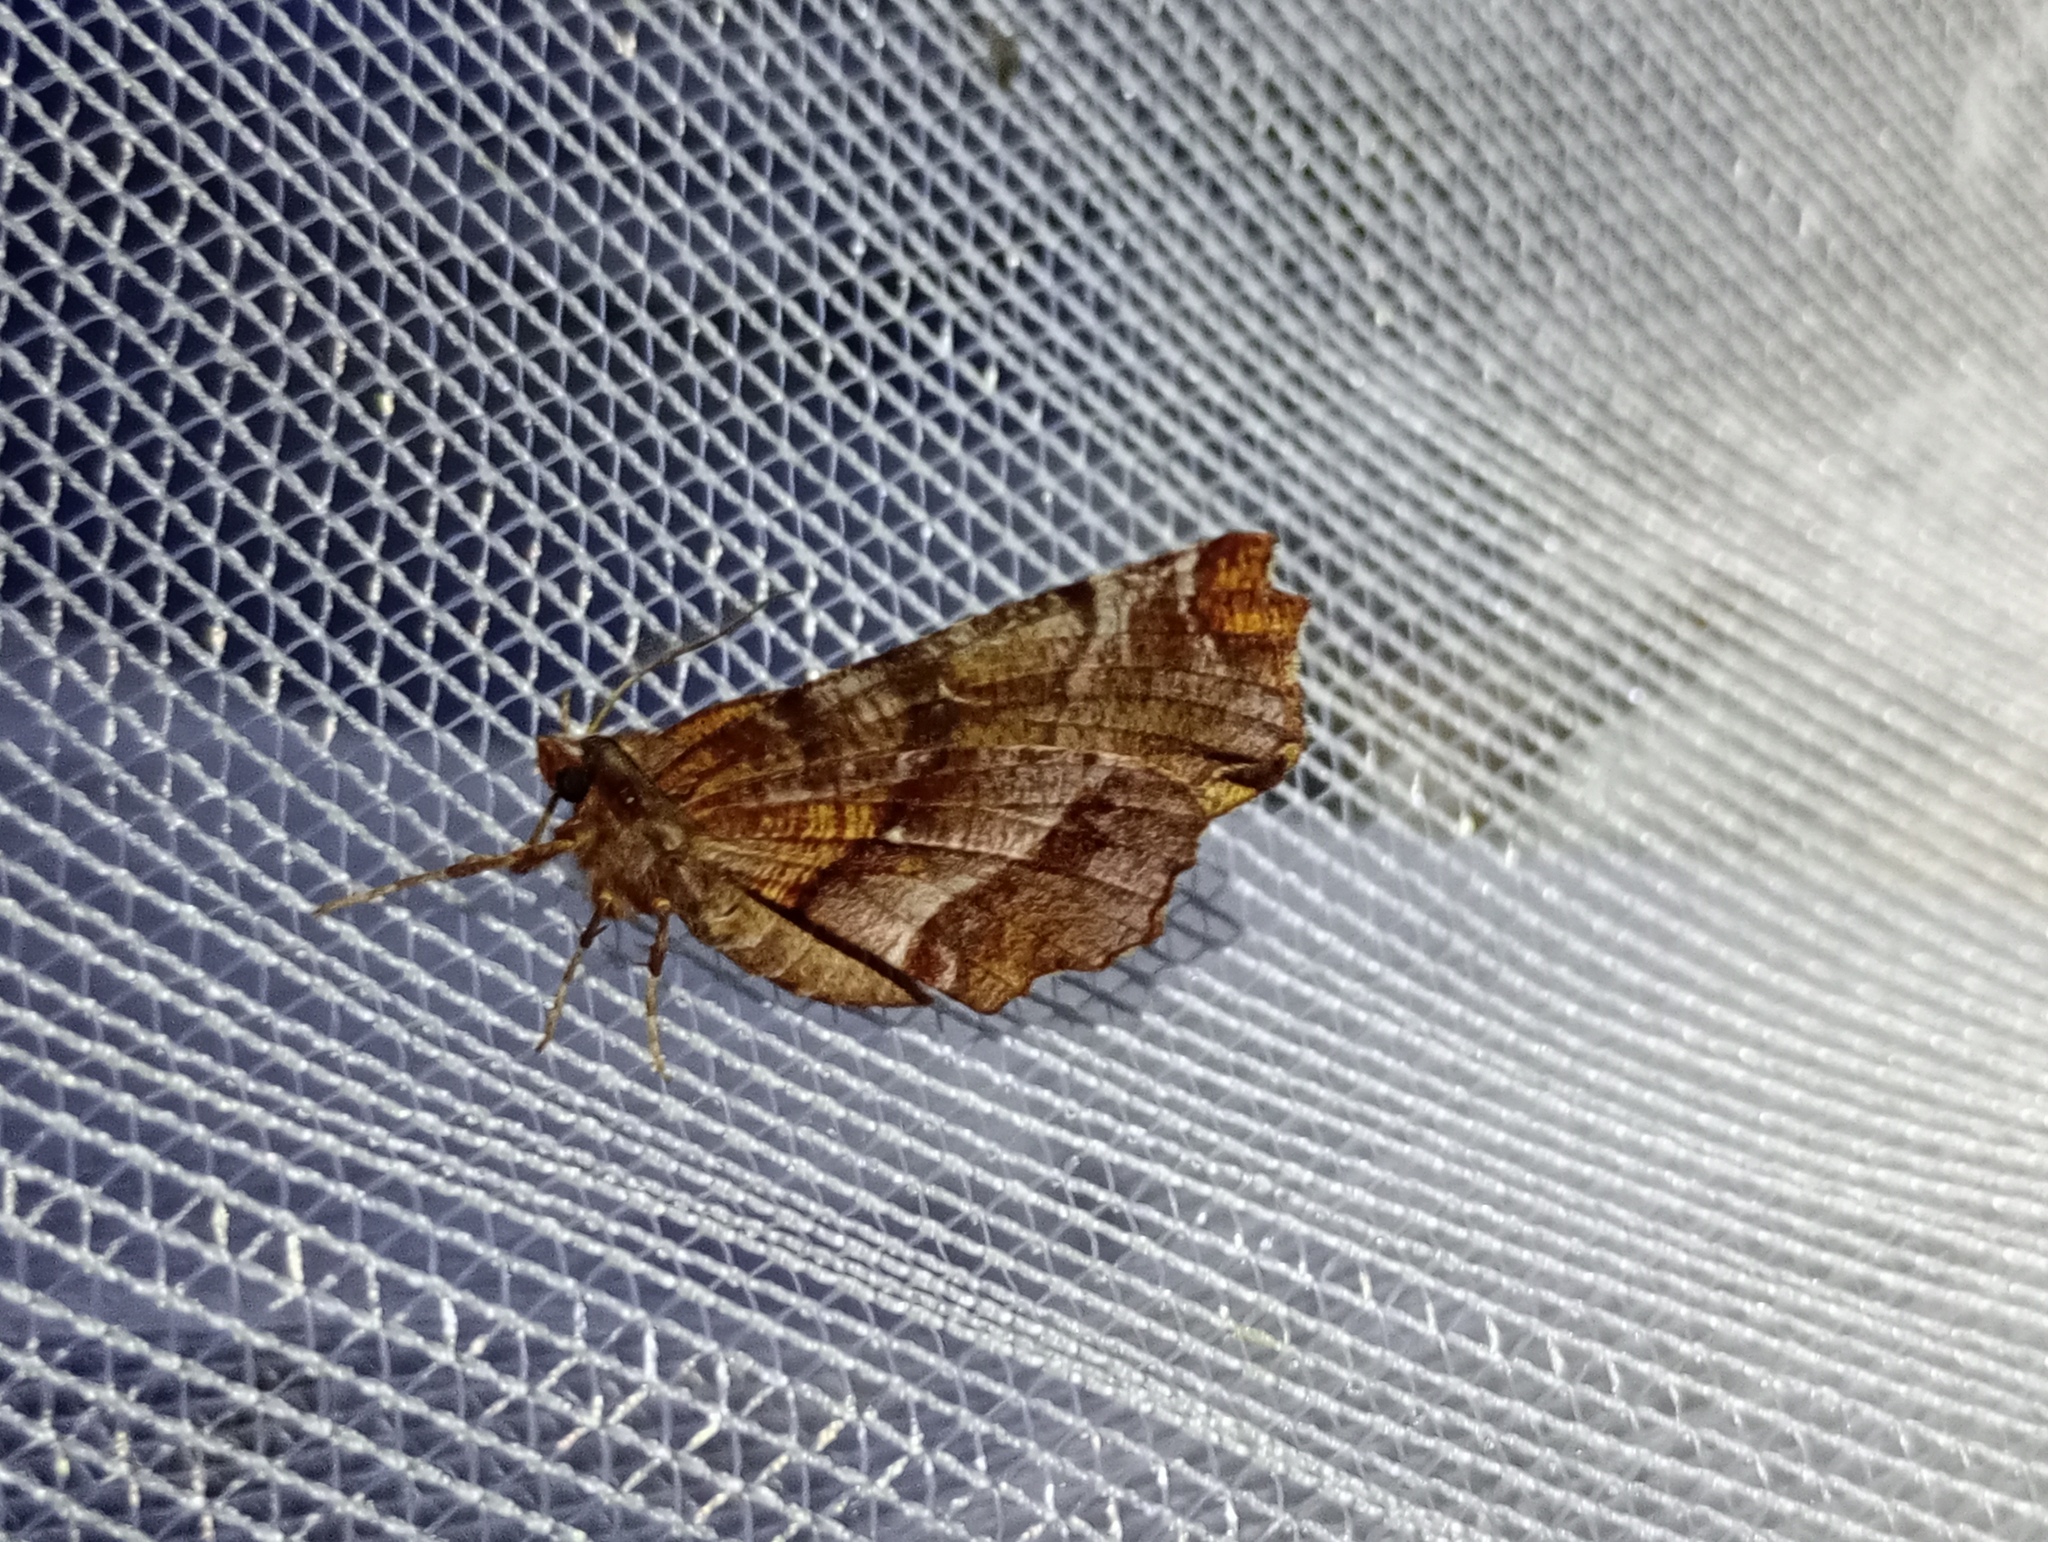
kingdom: Animalia
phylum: Arthropoda
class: Insecta
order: Lepidoptera
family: Geometridae
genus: Selenia
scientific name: Selenia dentaria
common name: Early thorn
